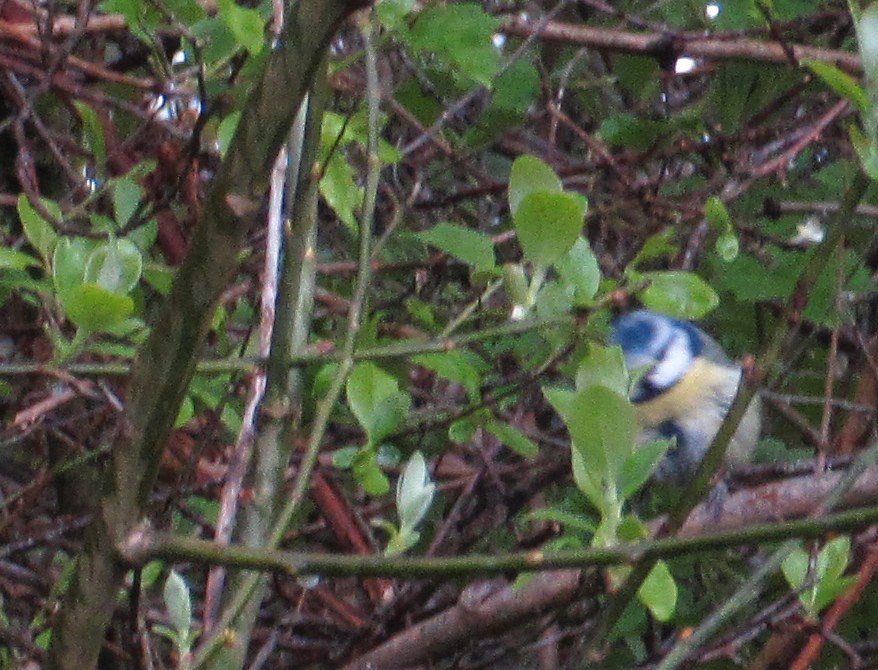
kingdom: Animalia
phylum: Chordata
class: Aves
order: Passeriformes
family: Paridae
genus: Cyanistes
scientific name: Cyanistes caeruleus
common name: Eurasian blue tit
